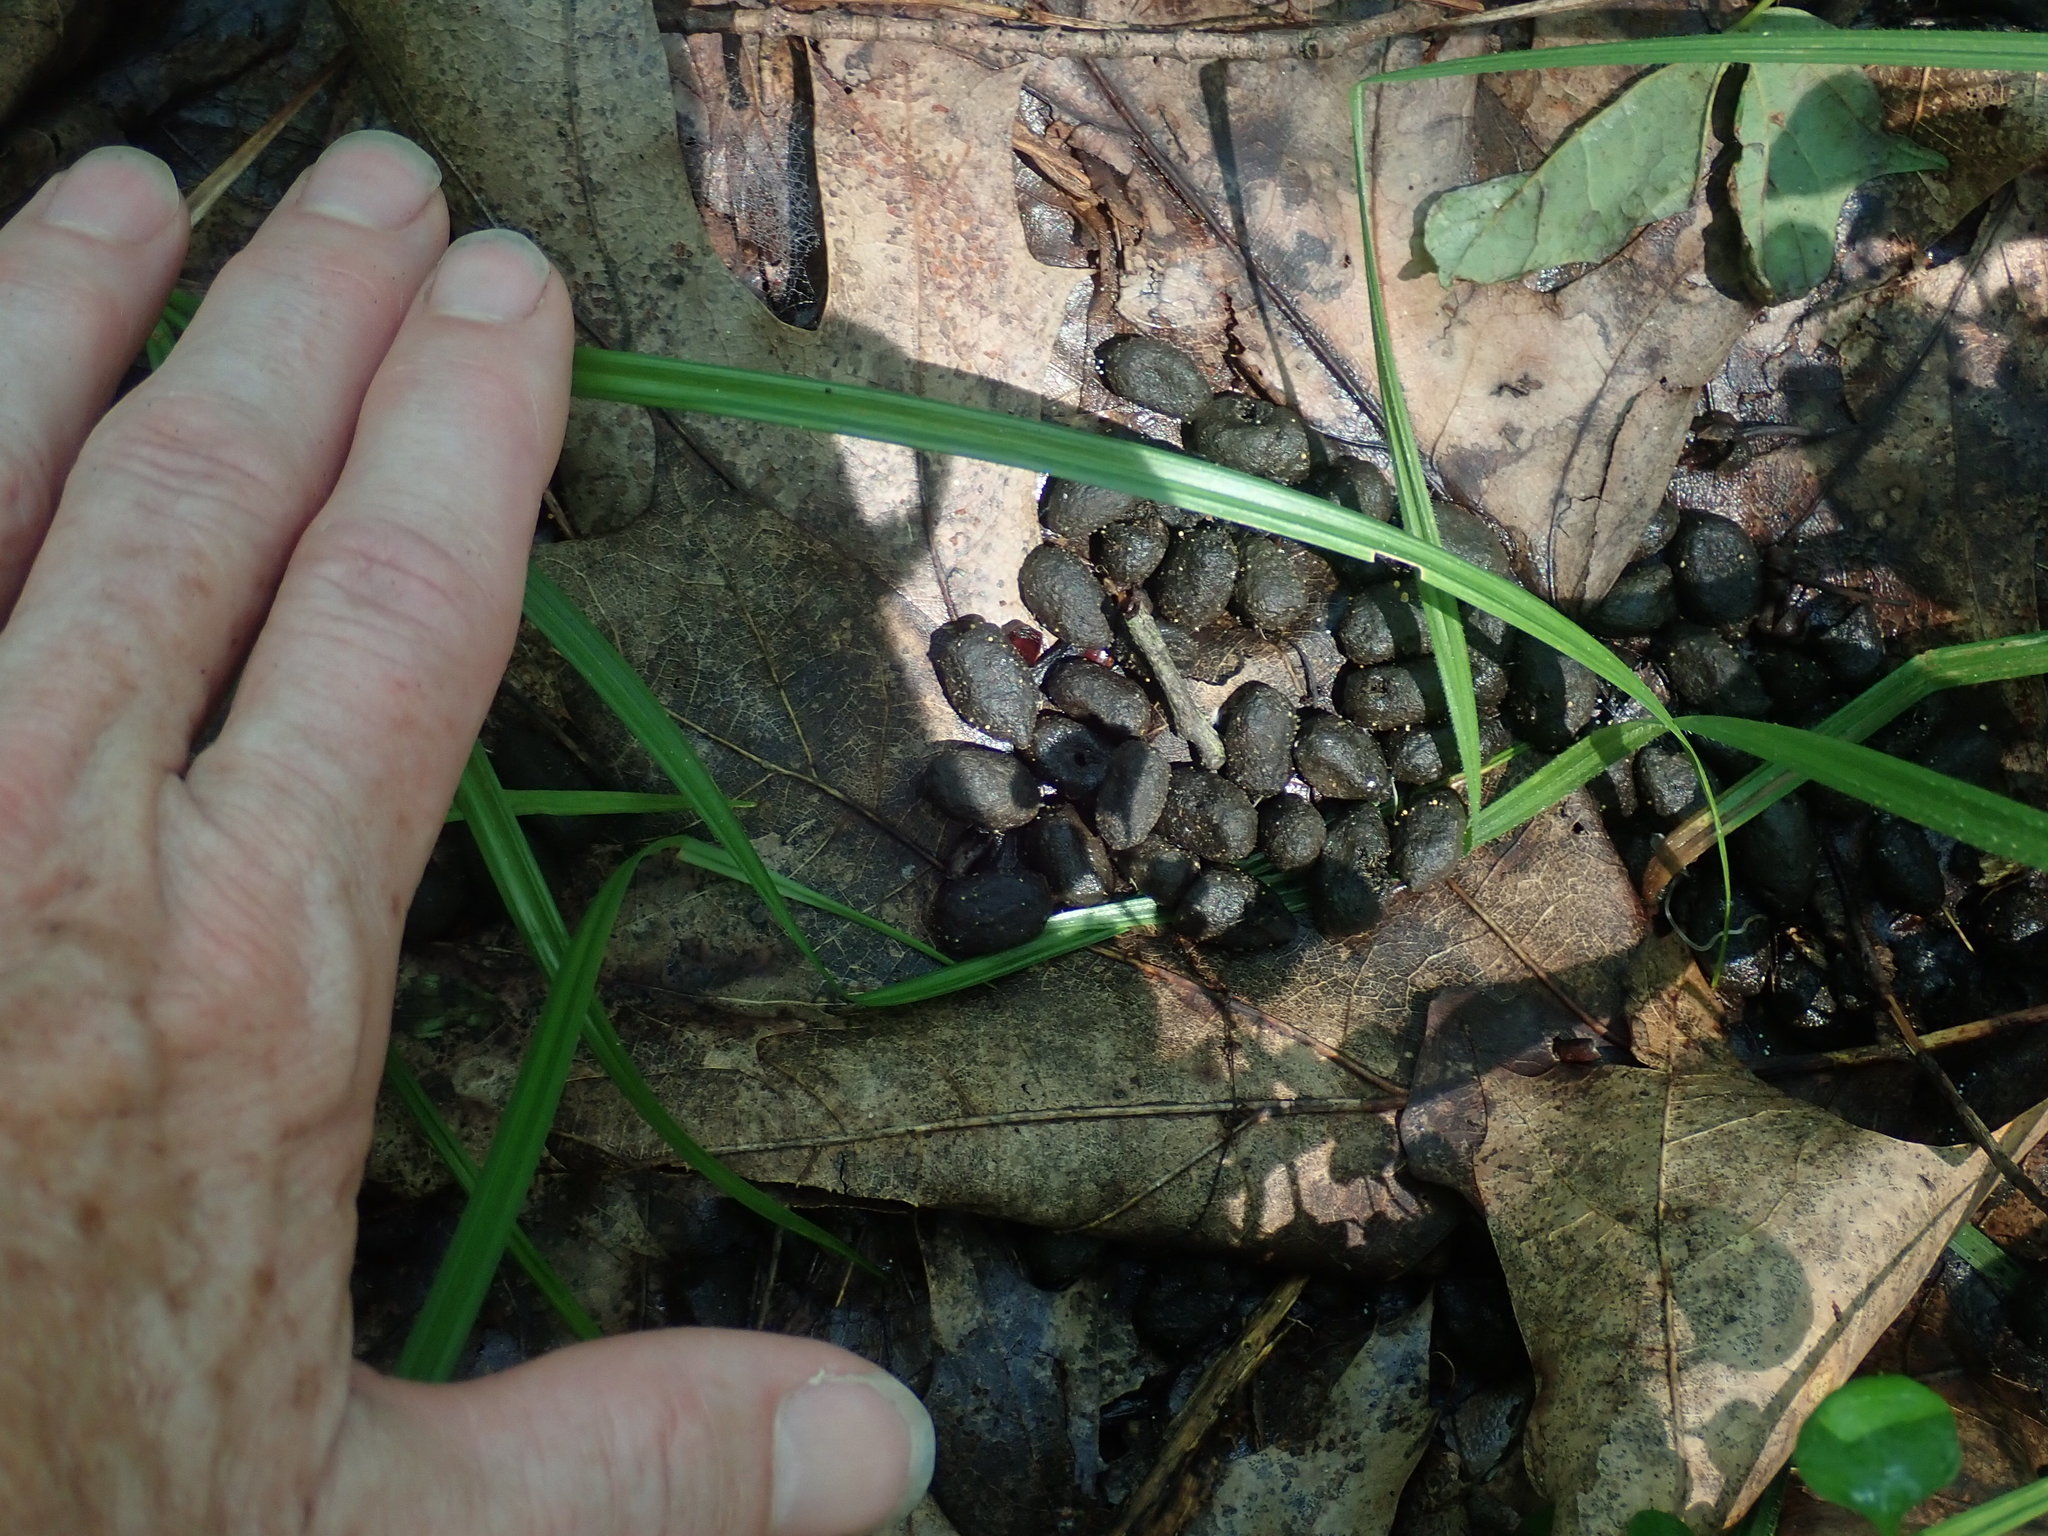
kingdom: Animalia
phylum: Chordata
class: Mammalia
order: Artiodactyla
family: Cervidae
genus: Odocoileus
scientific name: Odocoileus virginianus
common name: White-tailed deer
